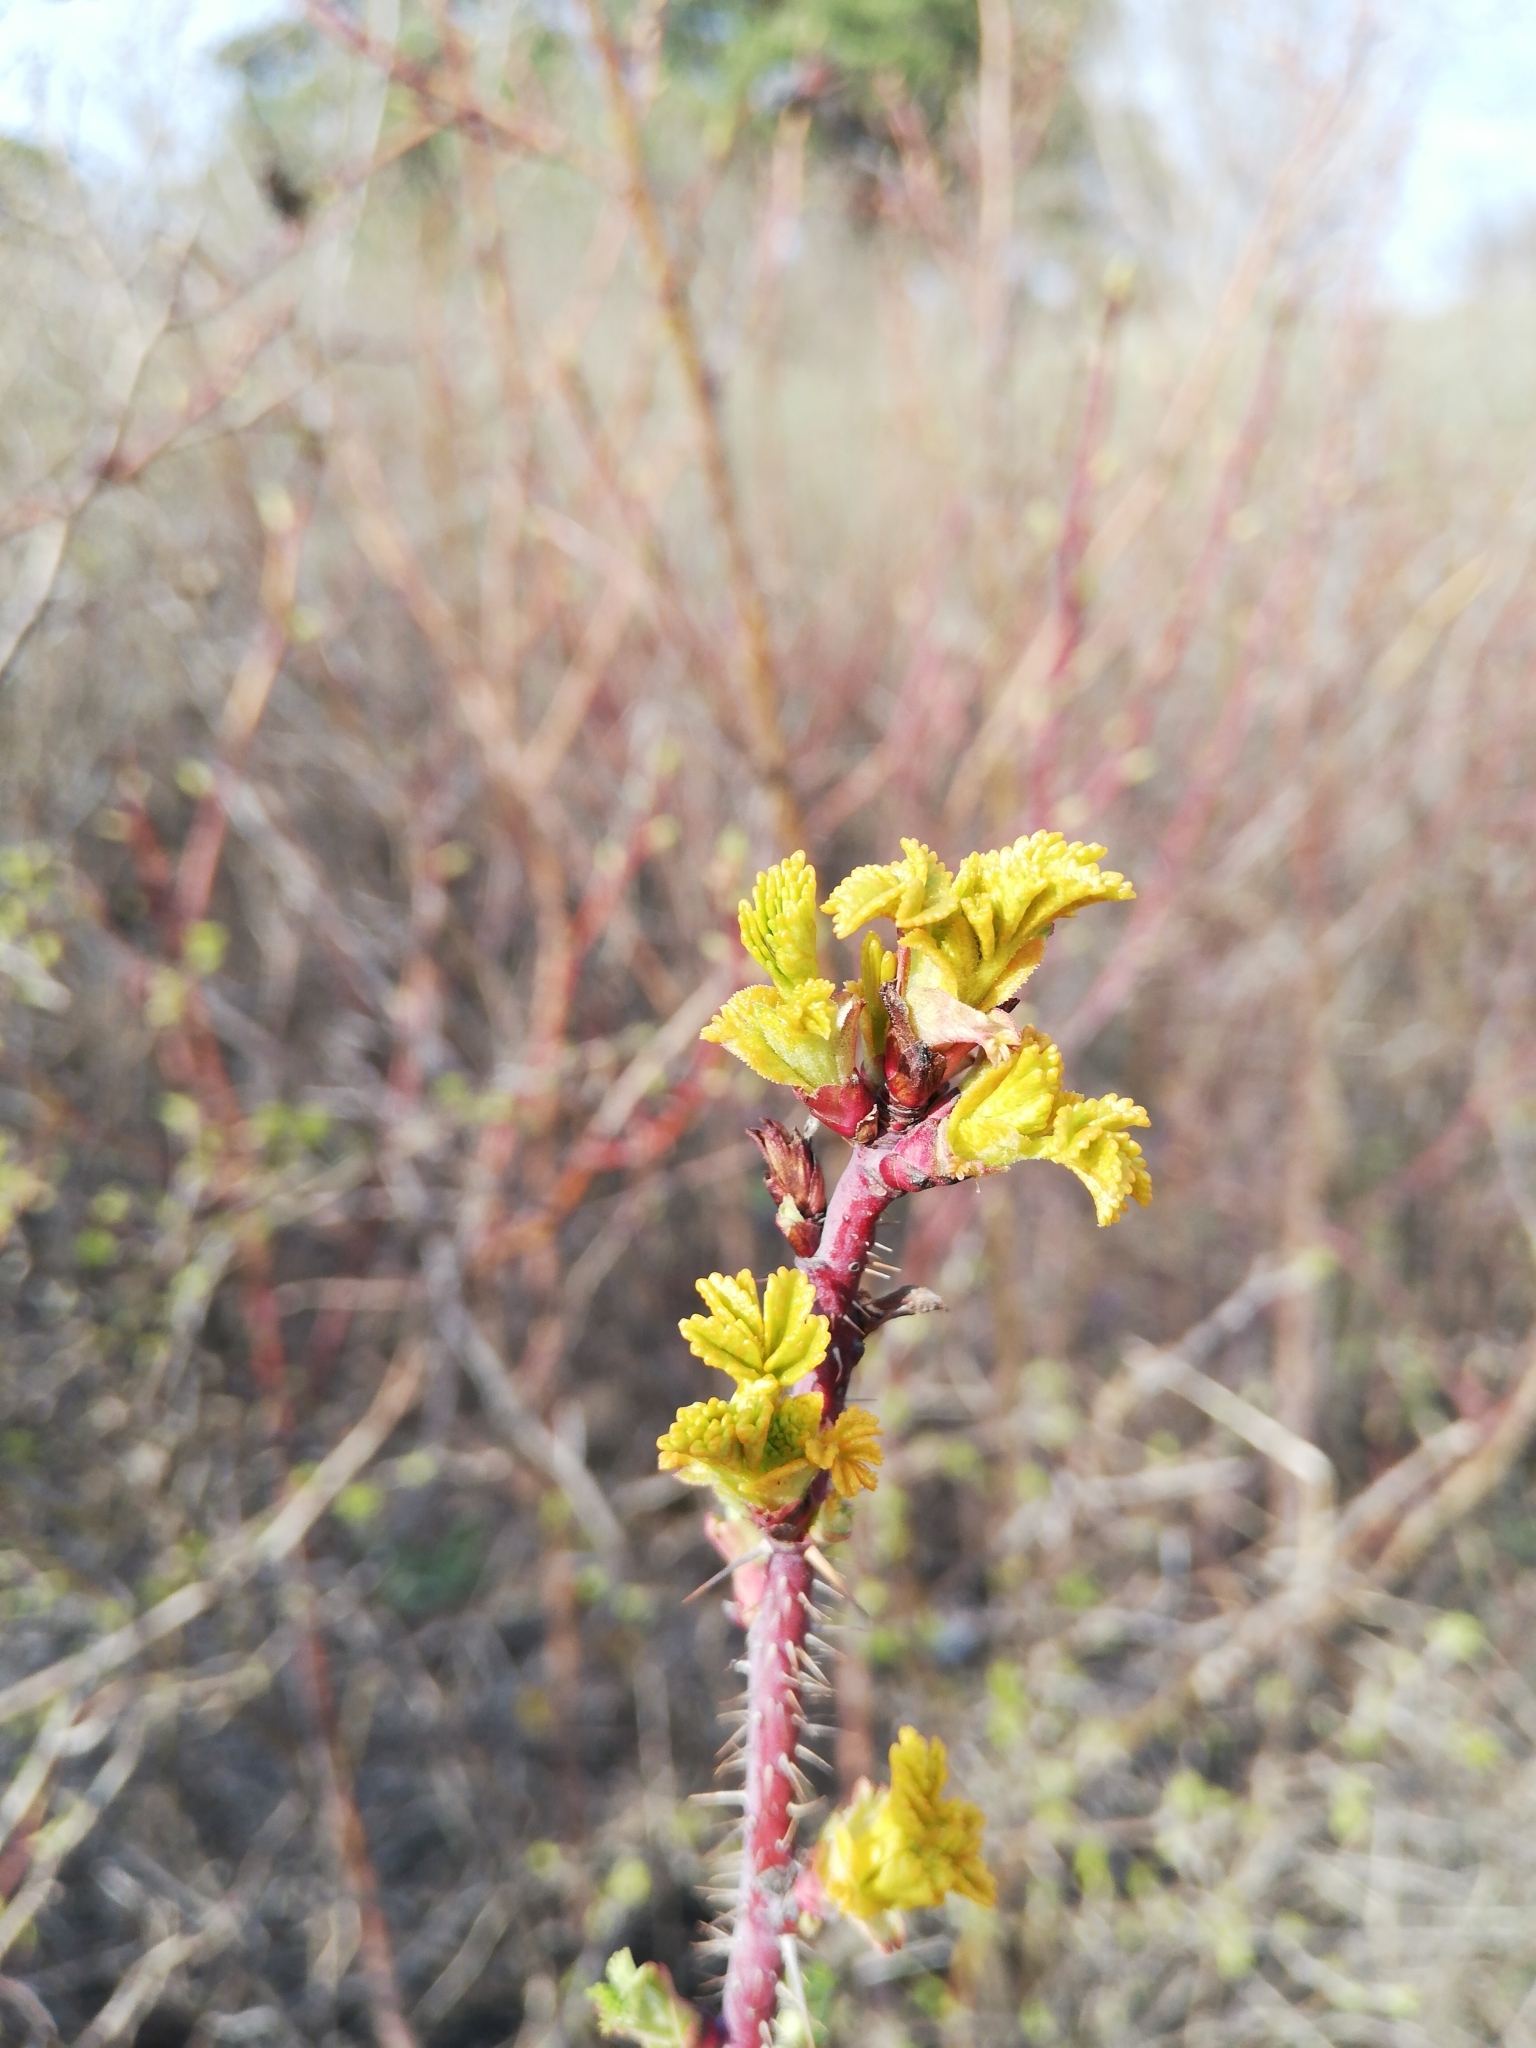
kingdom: Plantae
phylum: Tracheophyta
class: Magnoliopsida
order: Rosales
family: Rosaceae
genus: Rosa
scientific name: Rosa rugosa
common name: Japanese rose
